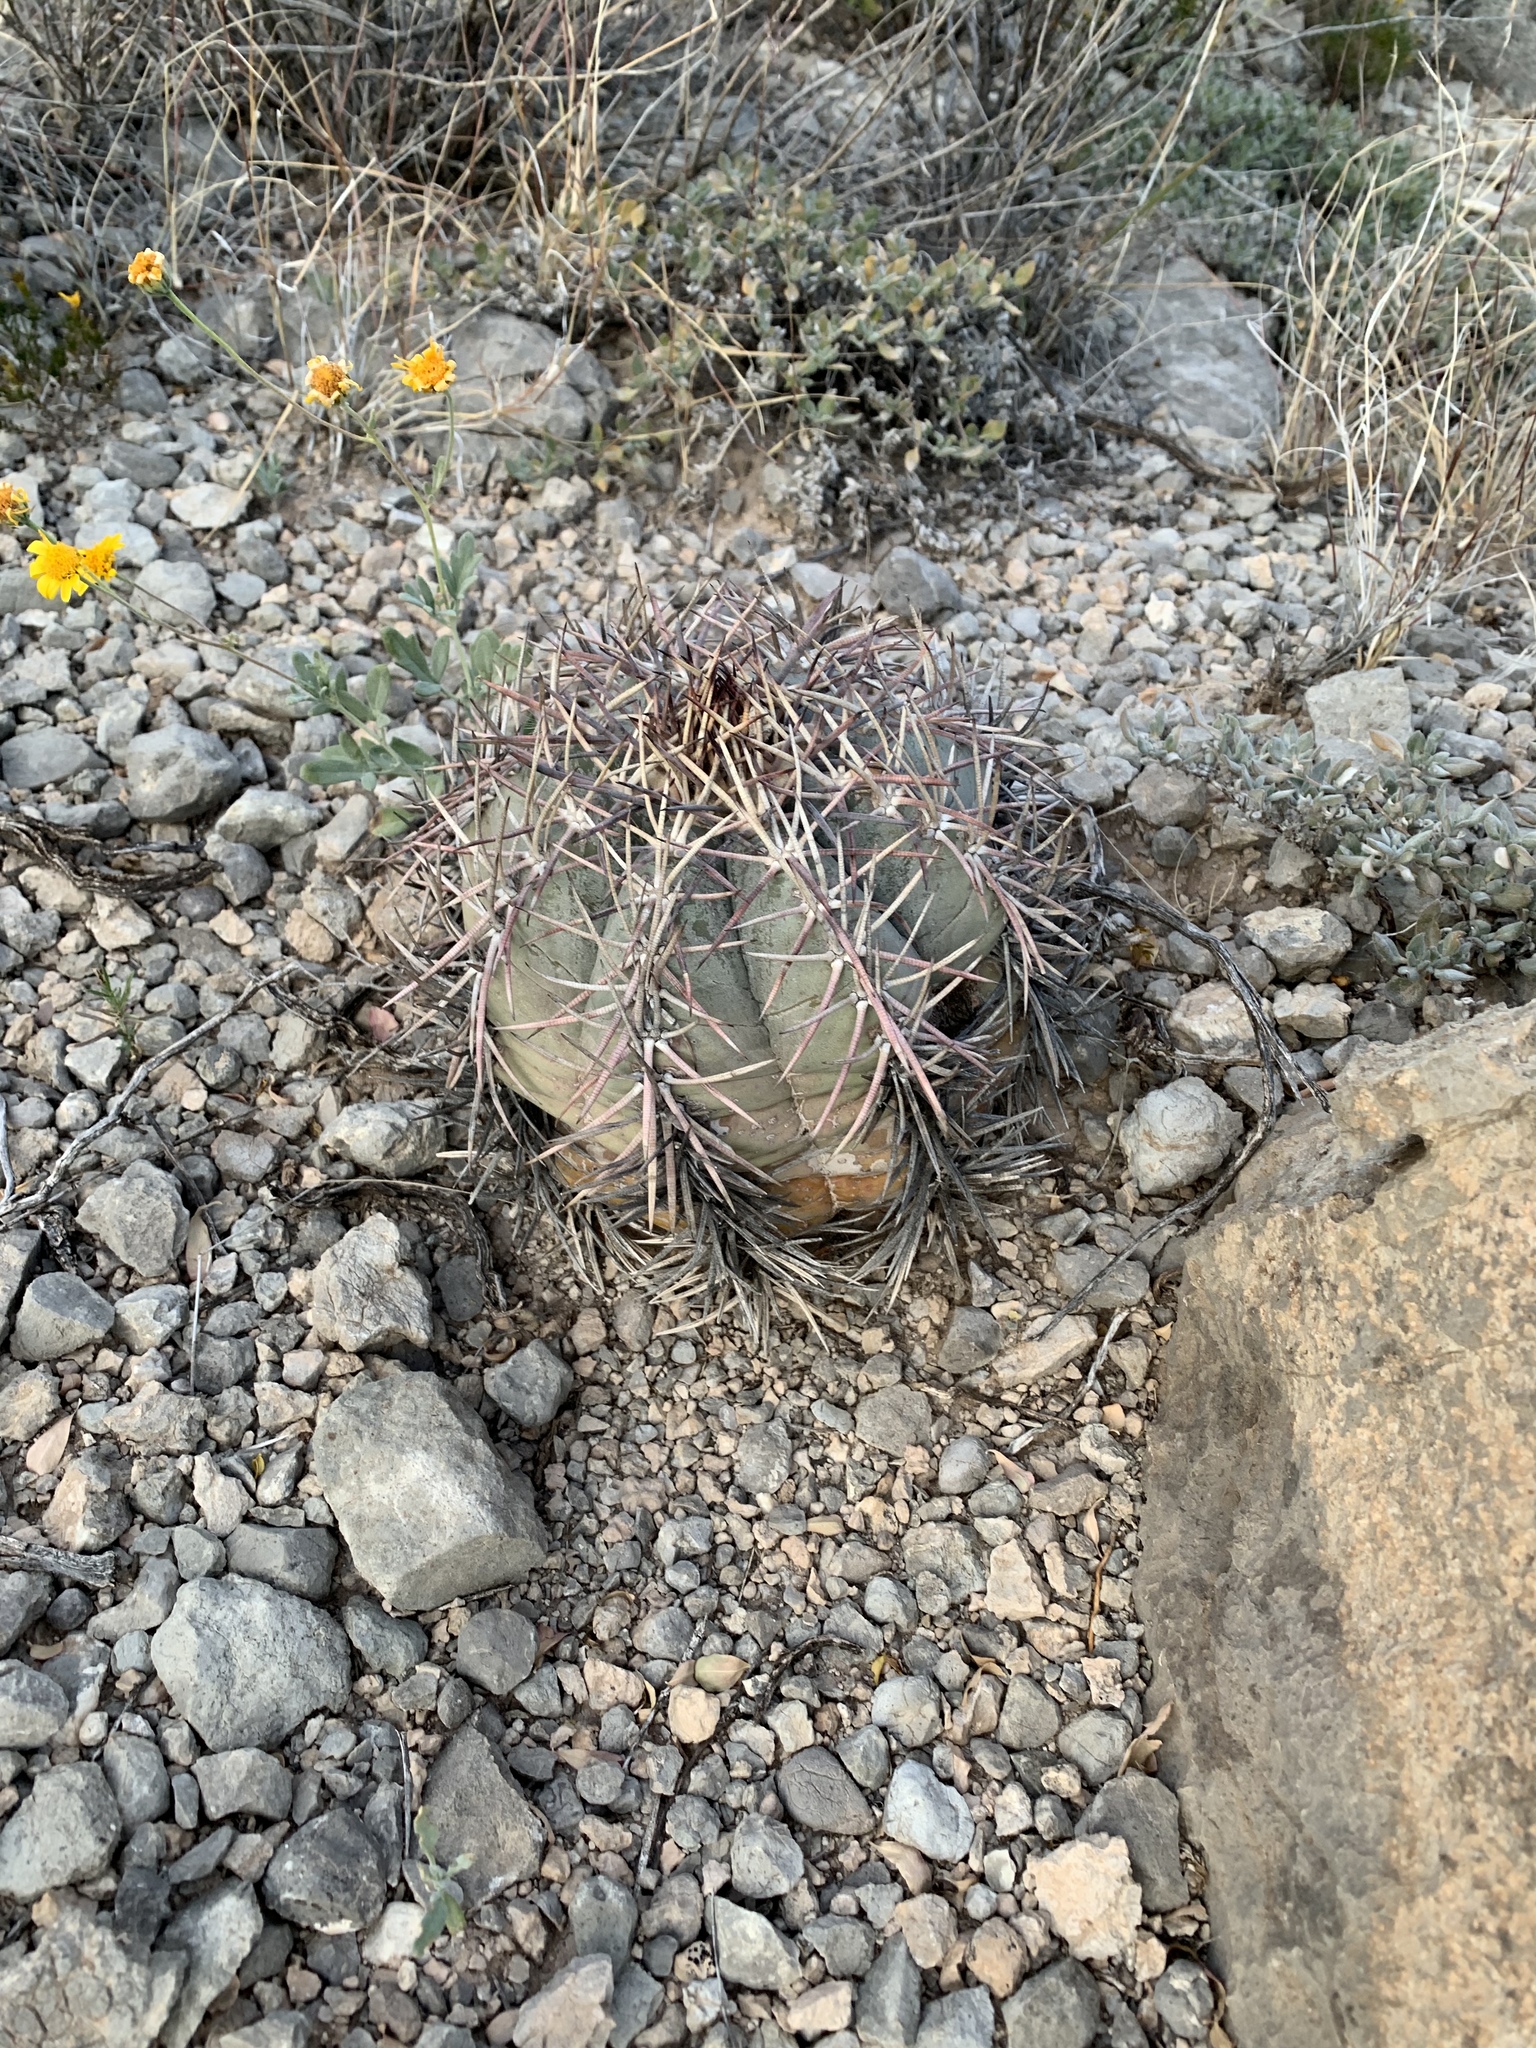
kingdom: Plantae
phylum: Tracheophyta
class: Magnoliopsida
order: Caryophyllales
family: Cactaceae
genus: Echinocactus
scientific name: Echinocactus horizonthalonius
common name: Devilshead
